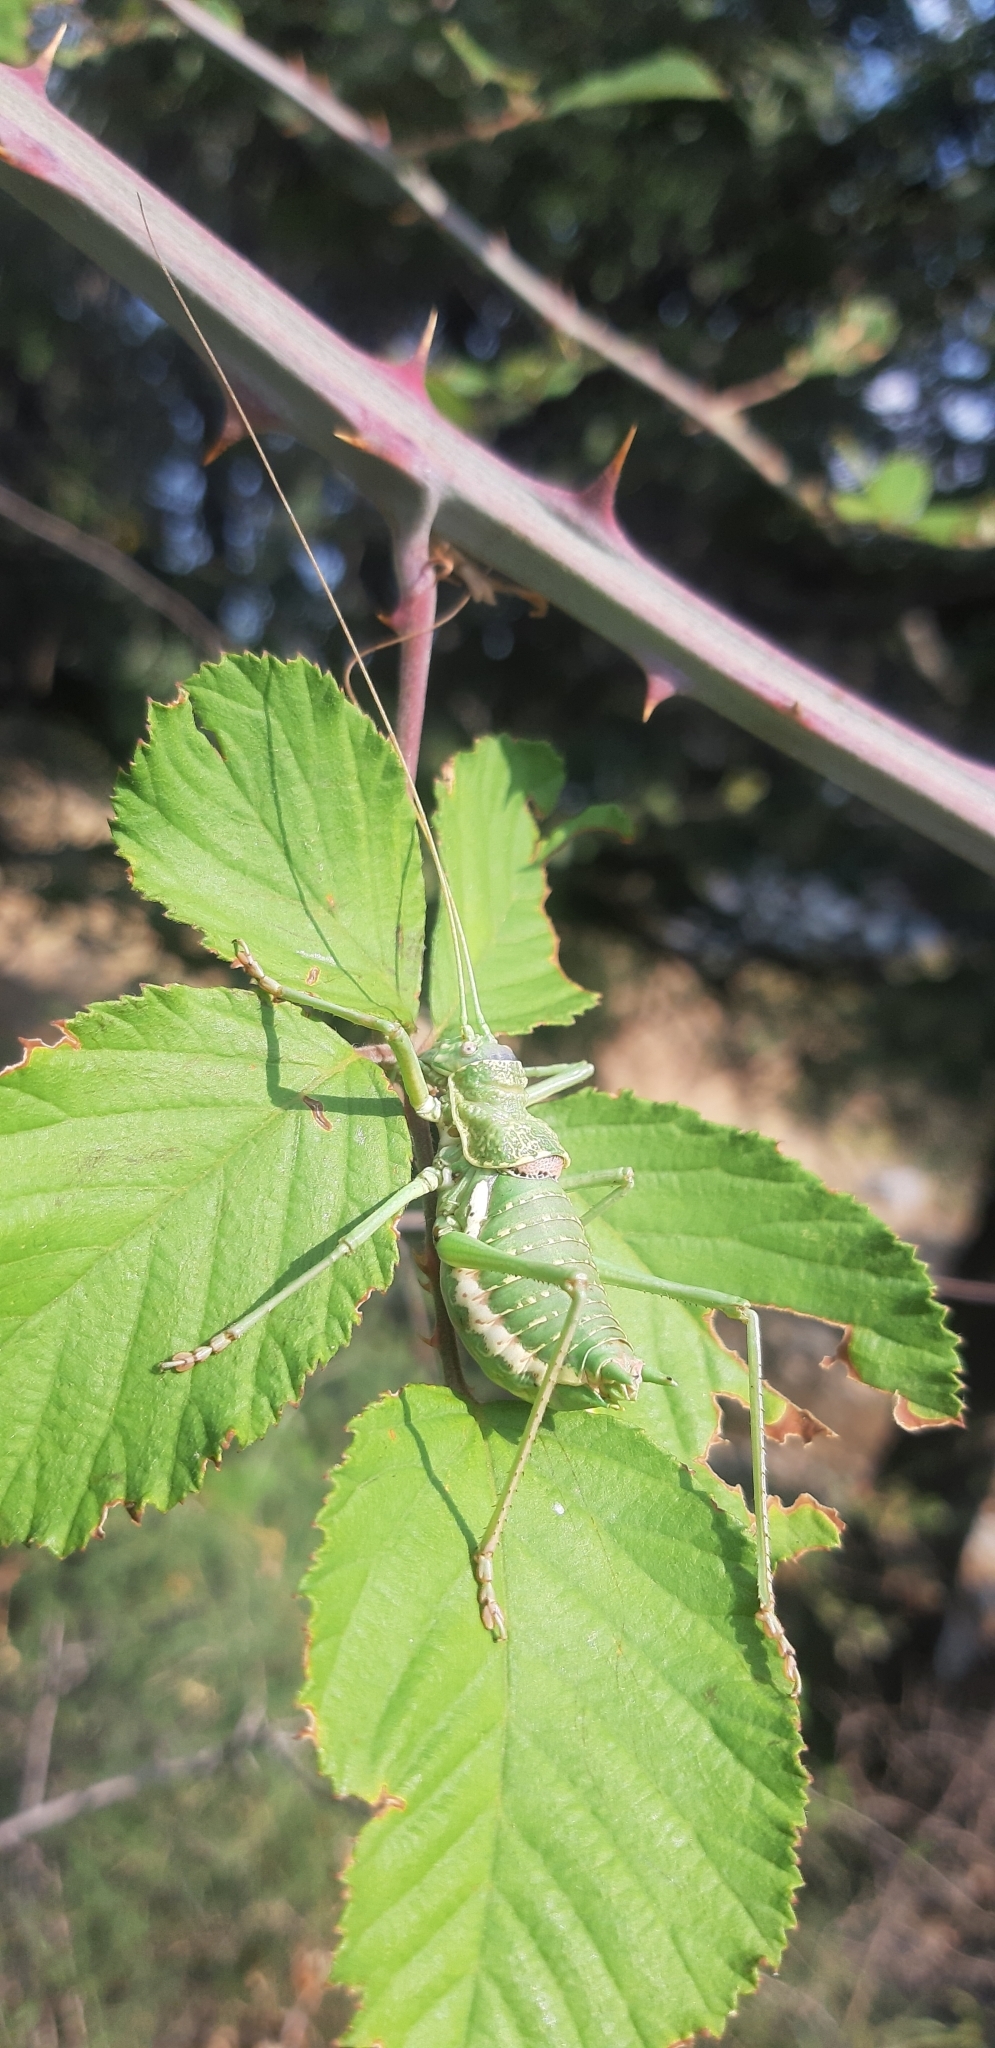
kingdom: Animalia
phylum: Arthropoda
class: Insecta
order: Orthoptera
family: Tettigoniidae
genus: Uromenus
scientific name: Uromenus elegans
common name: Elegant saddle bush-cricket
